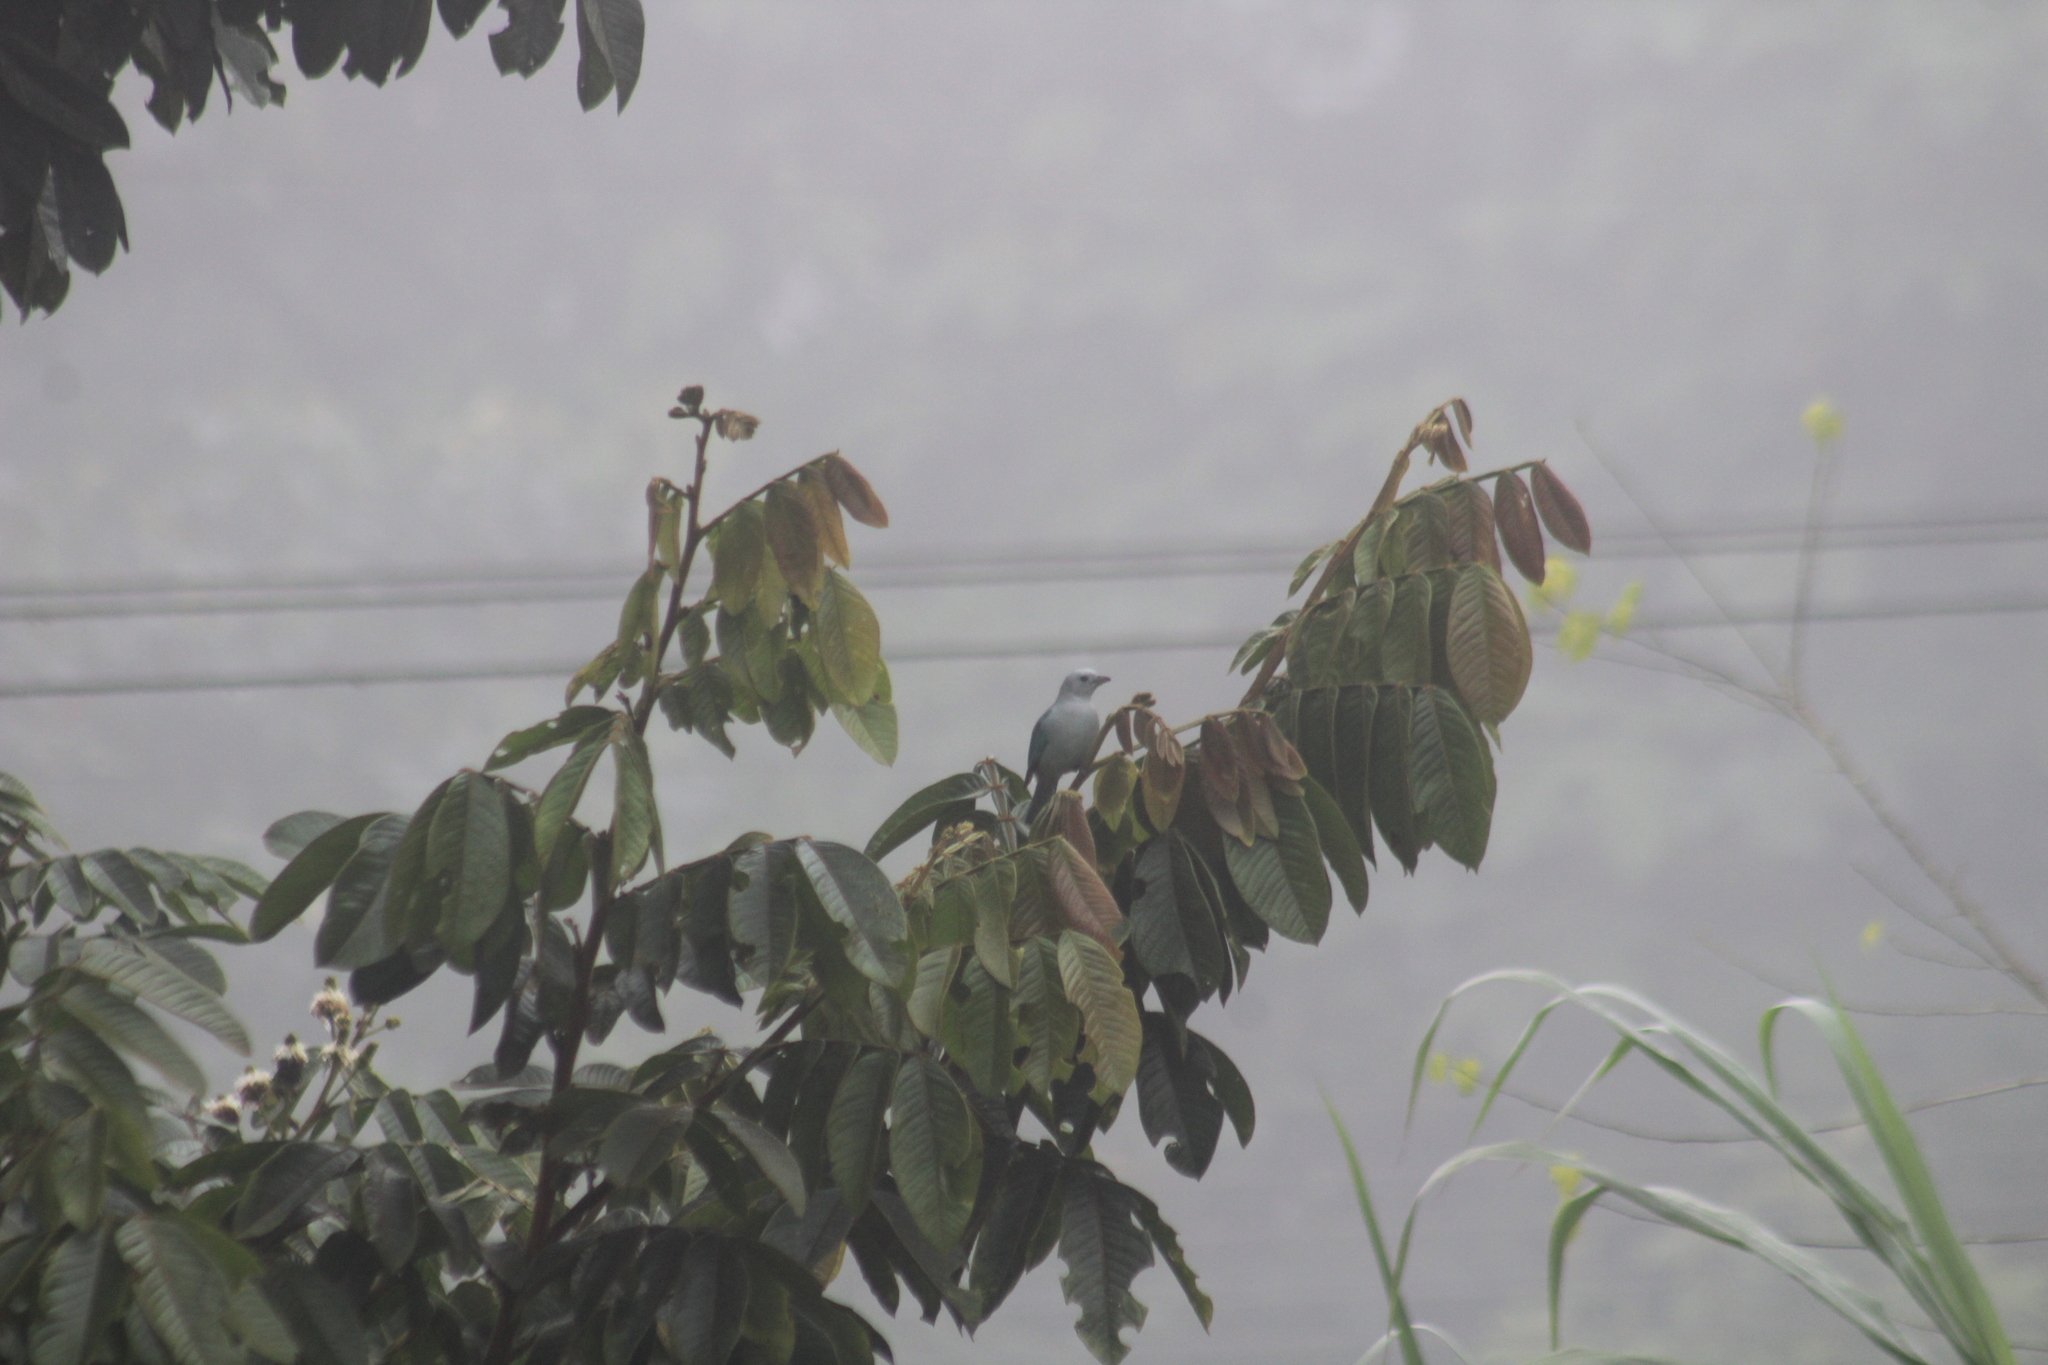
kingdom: Animalia
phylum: Chordata
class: Aves
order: Passeriformes
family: Thraupidae
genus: Thraupis
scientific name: Thraupis episcopus
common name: Blue-grey tanager
